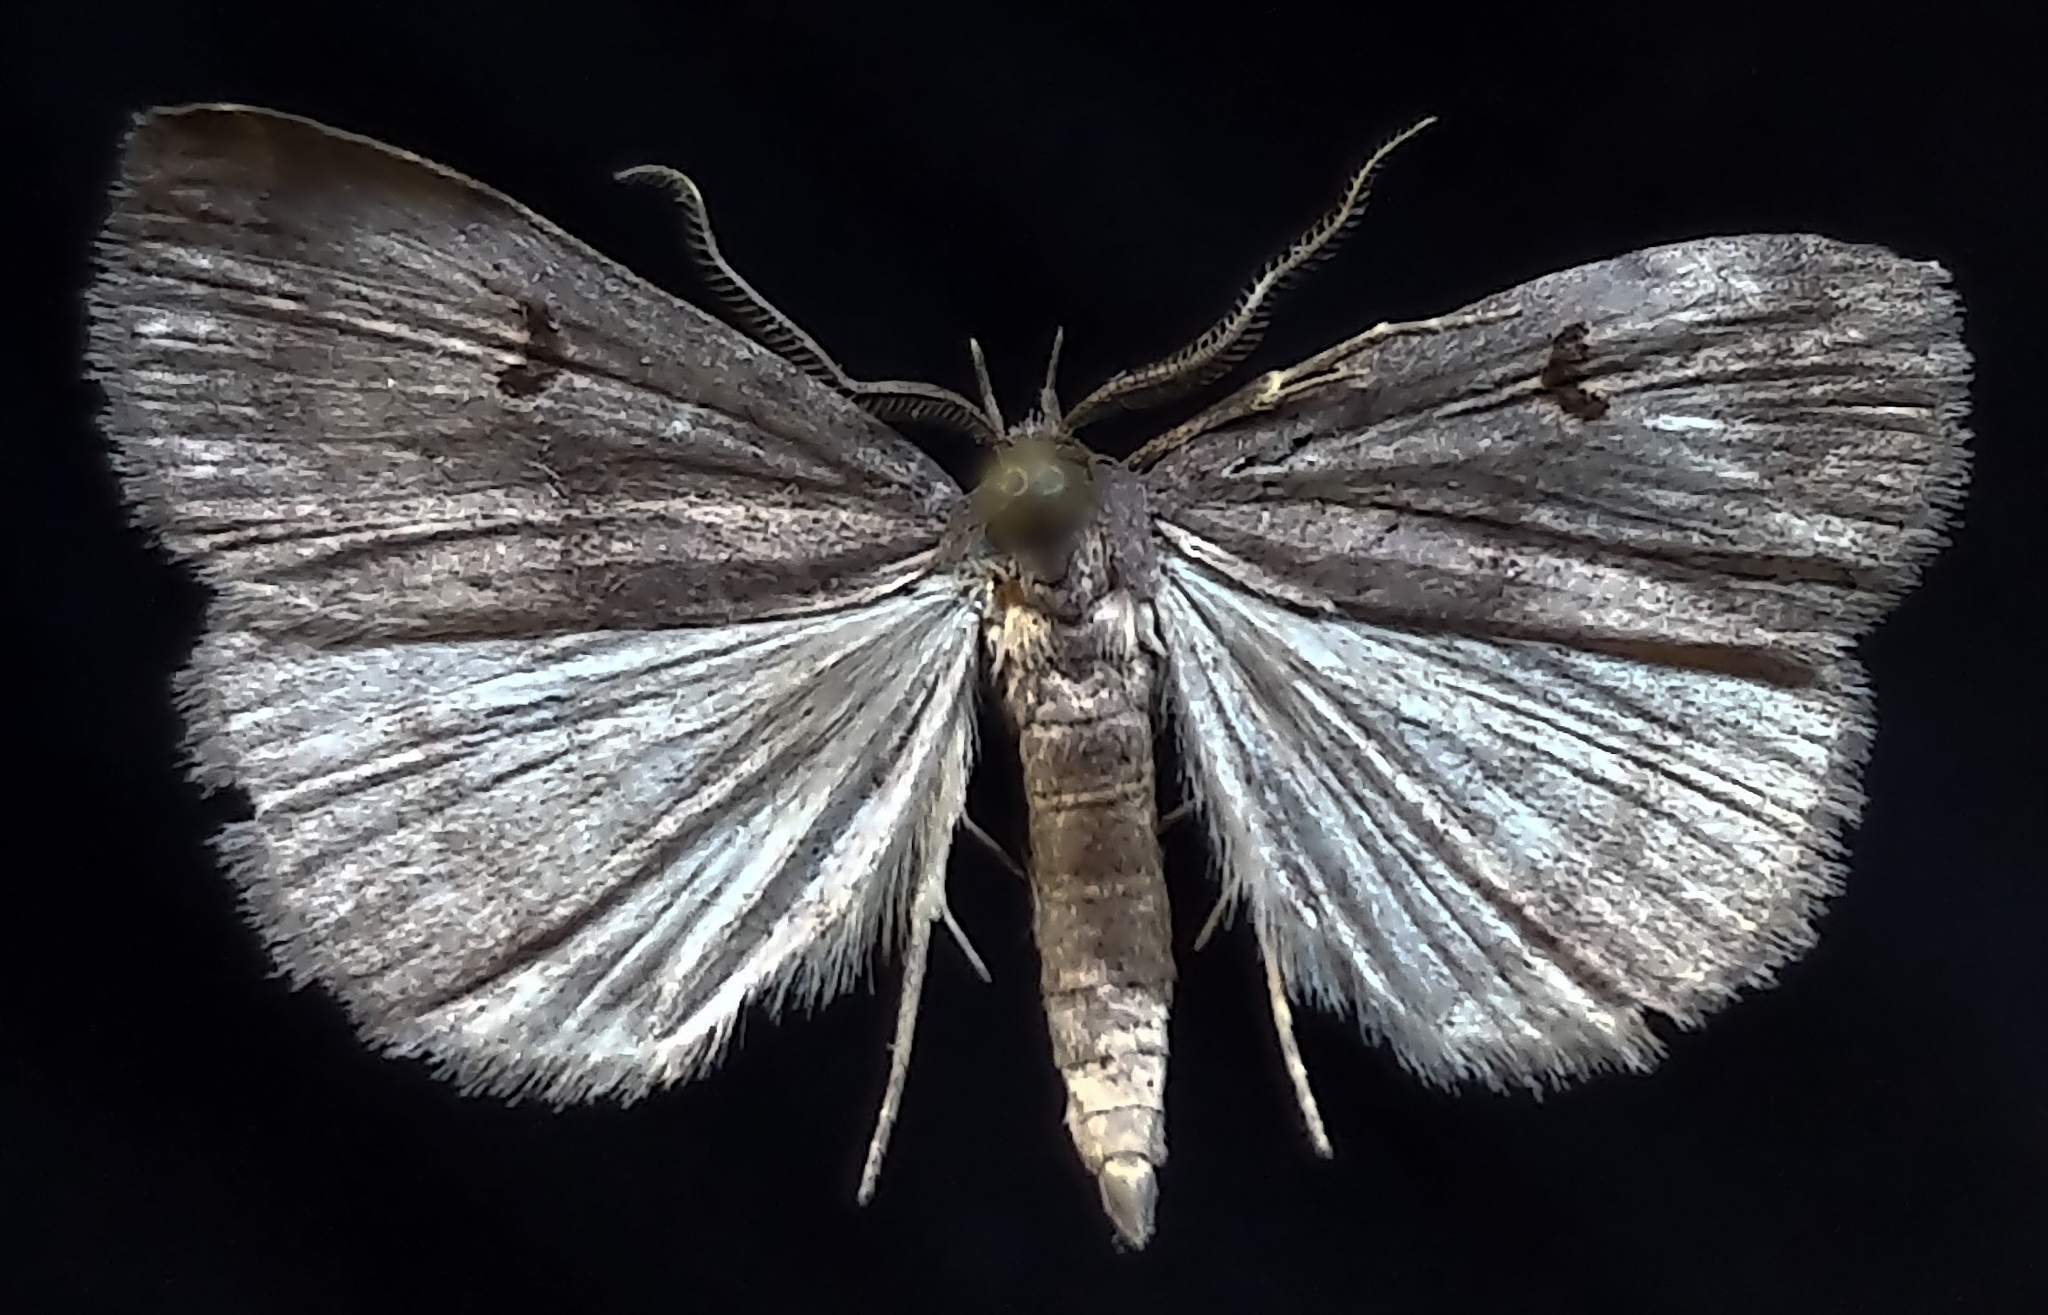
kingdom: Animalia
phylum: Arthropoda
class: Insecta
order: Lepidoptera
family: Erebidae
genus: Phalaenostola
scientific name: Phalaenostola hanhami
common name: Hanham's owlet
